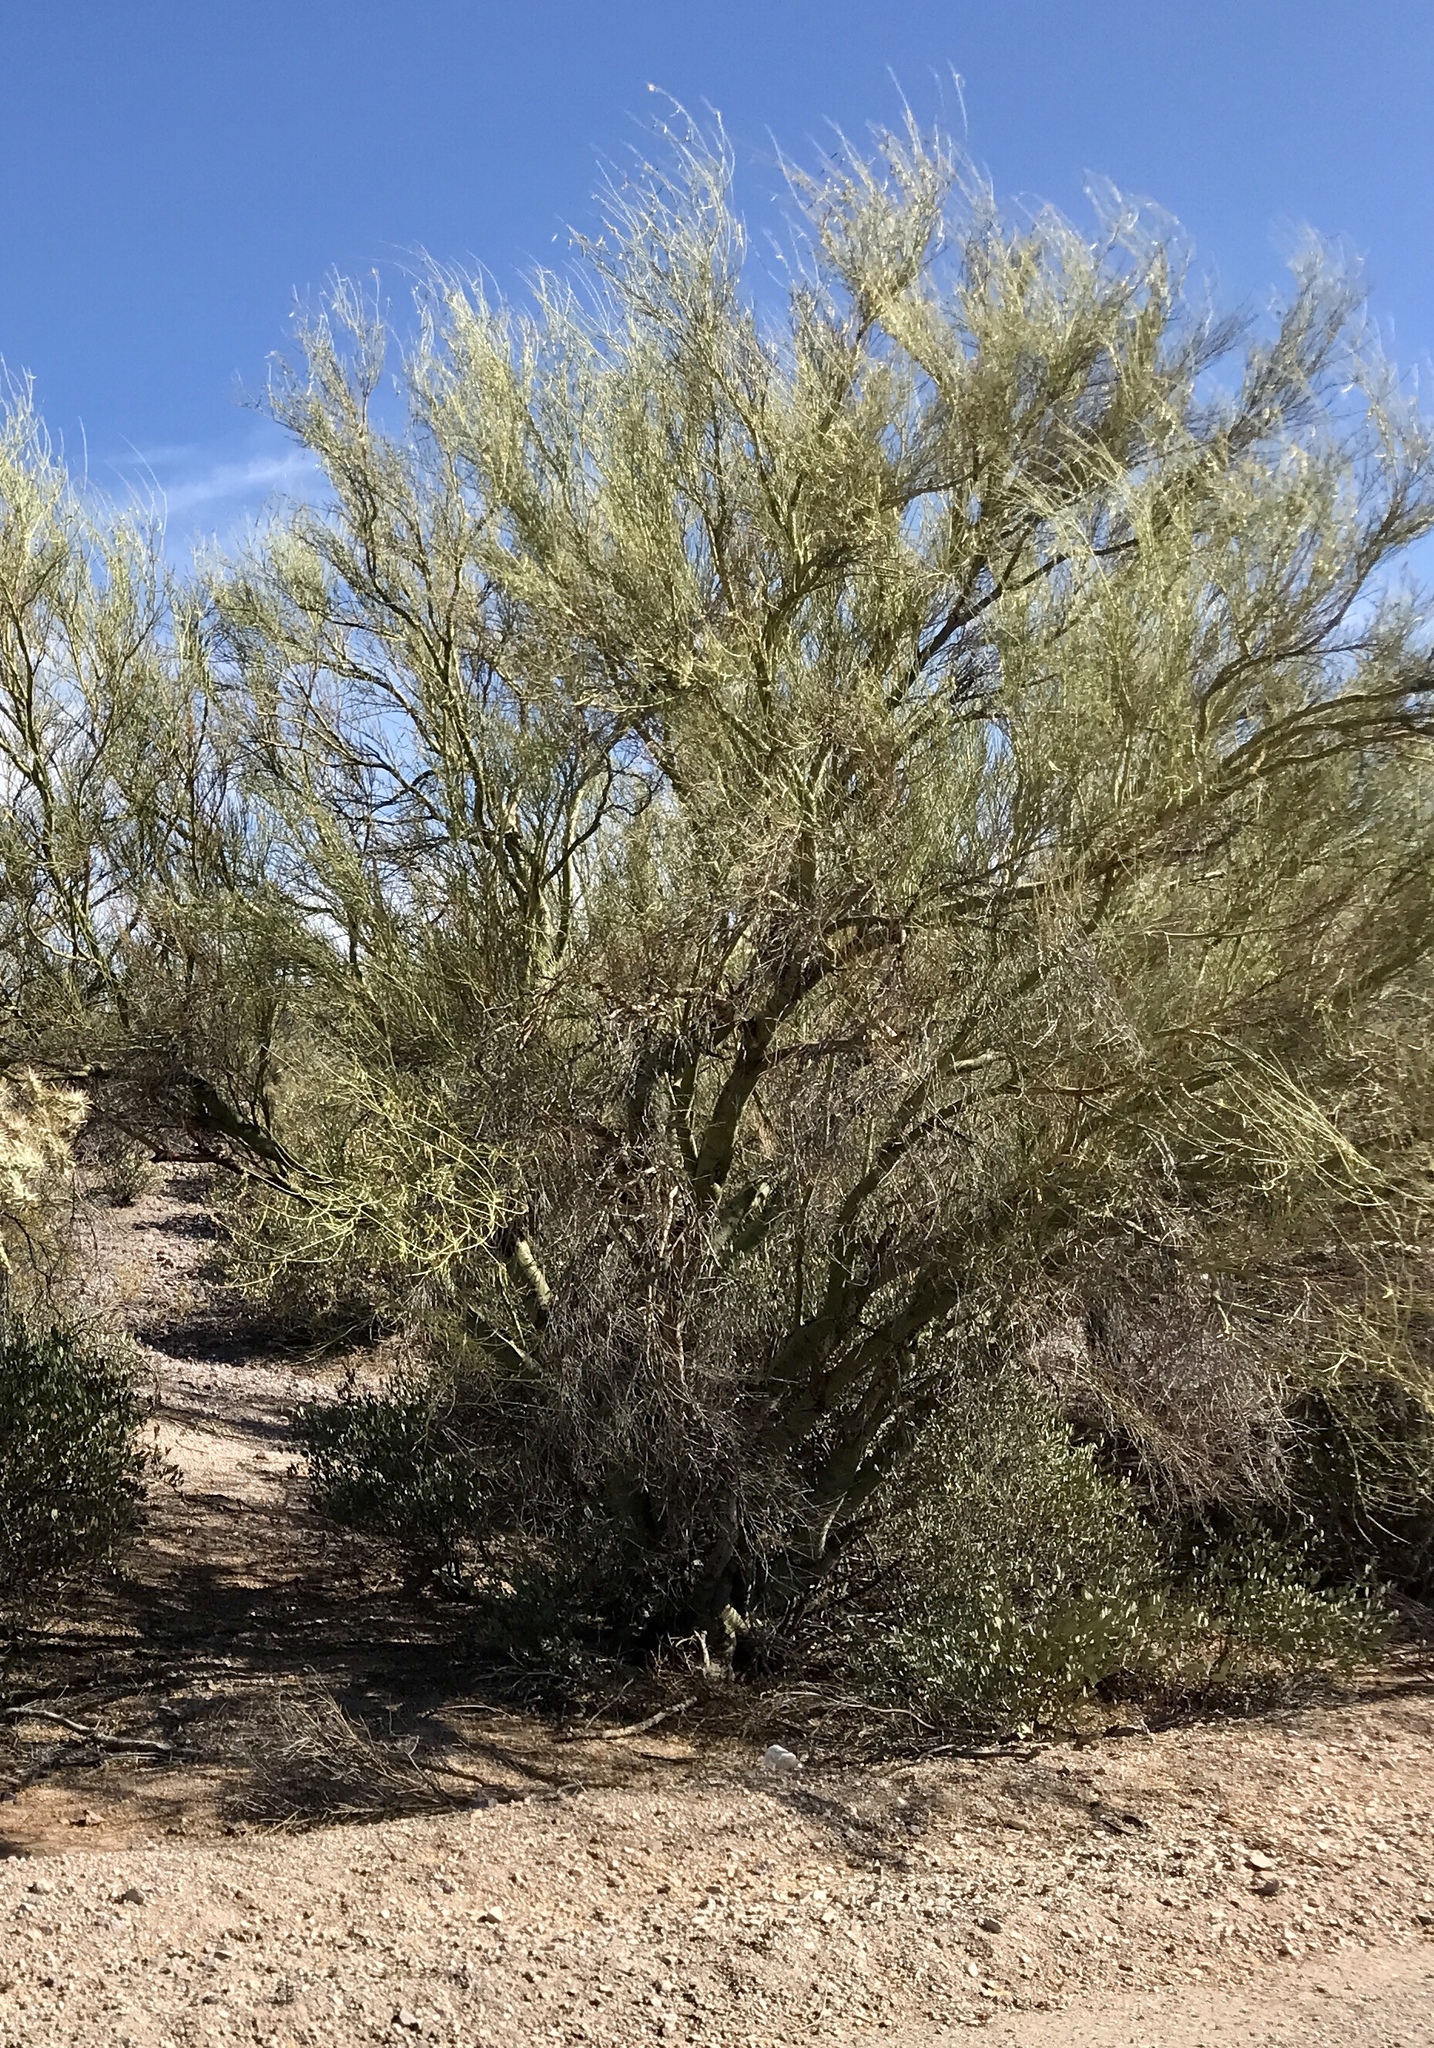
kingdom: Plantae
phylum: Tracheophyta
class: Magnoliopsida
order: Fabales
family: Fabaceae
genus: Parkinsonia
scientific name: Parkinsonia microphylla
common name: Yellow paloverde
